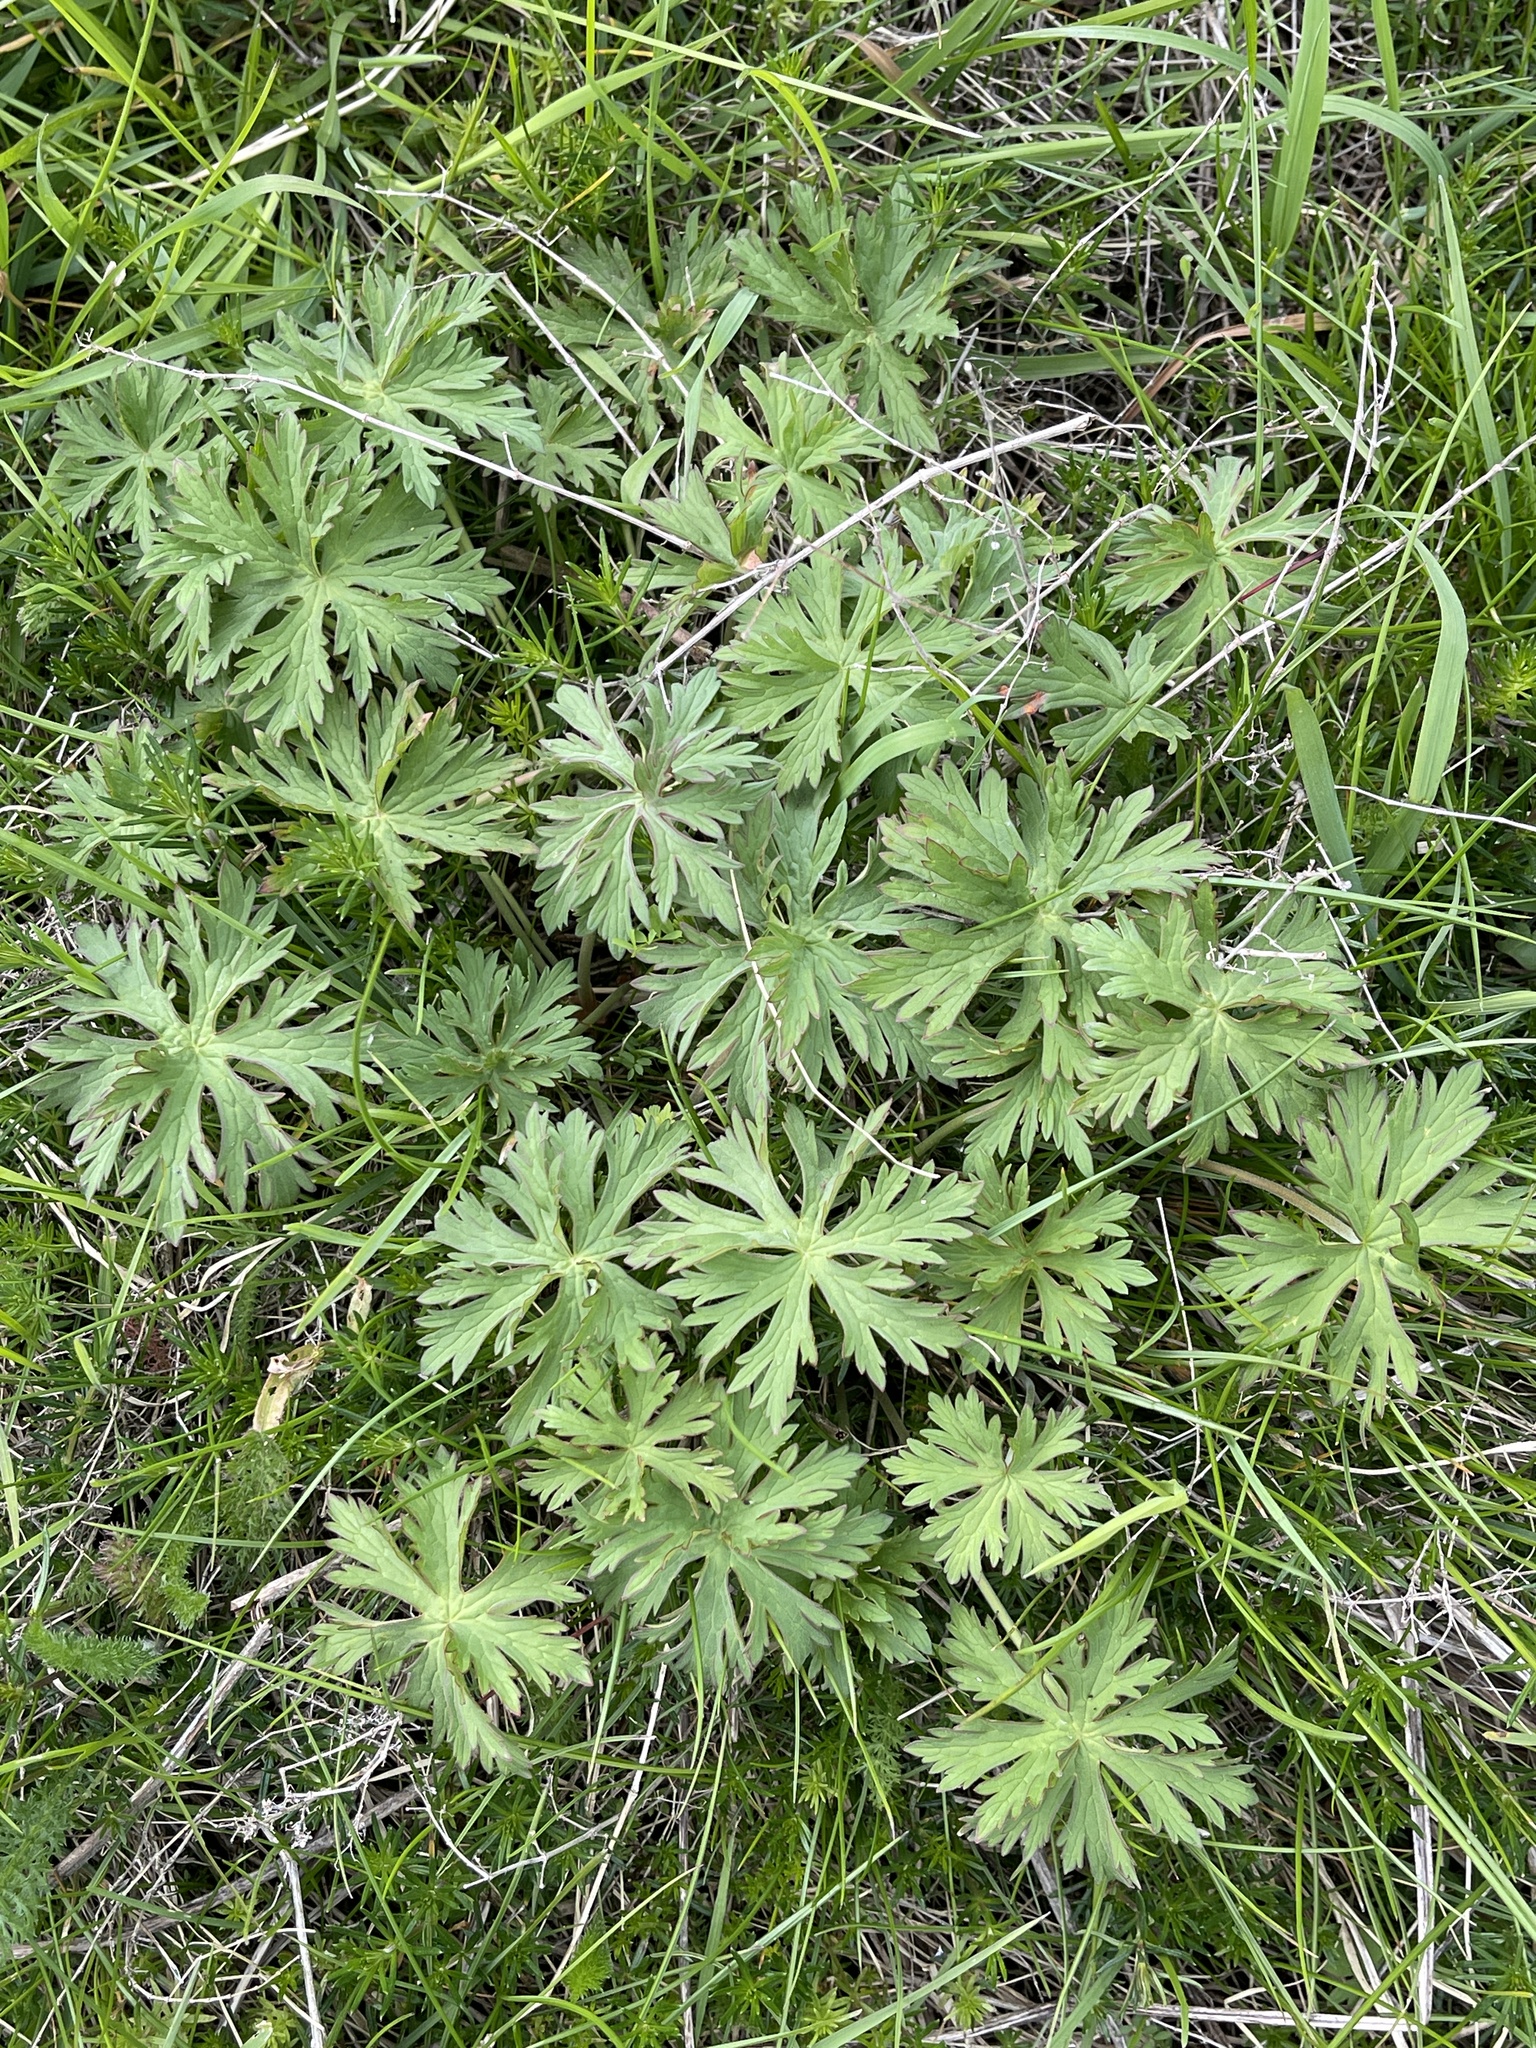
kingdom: Plantae
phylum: Tracheophyta
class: Magnoliopsida
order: Geraniales
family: Geraniaceae
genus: Geranium
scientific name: Geranium pratense
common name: Meadow crane's-bill
